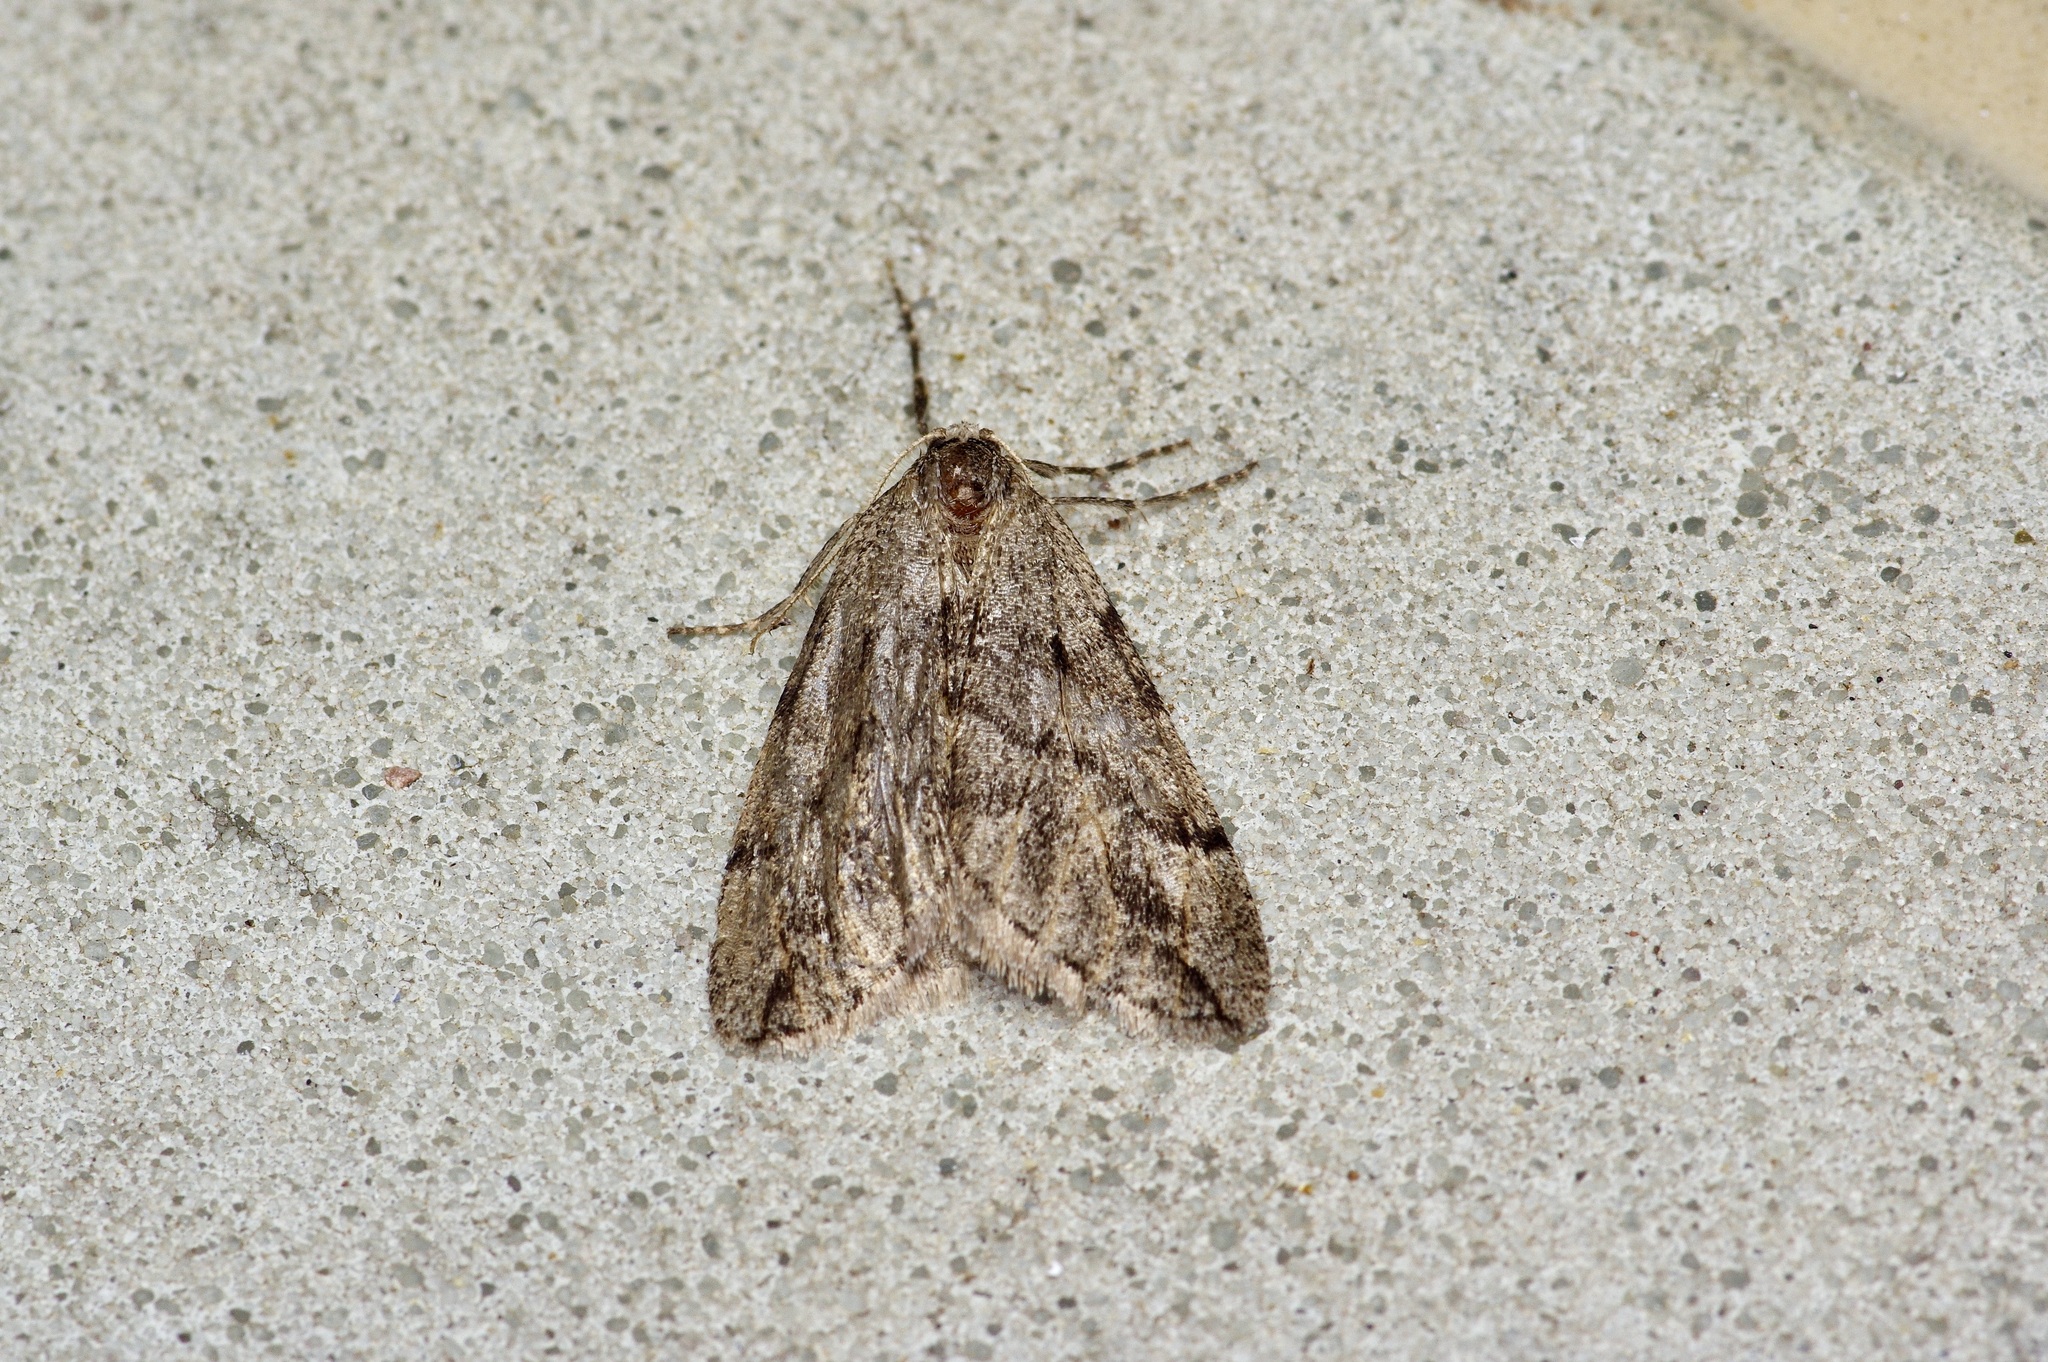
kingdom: Animalia
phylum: Arthropoda
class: Insecta
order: Lepidoptera
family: Geometridae
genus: Paleacrita
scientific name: Paleacrita vernata
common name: Spring cankerworm
